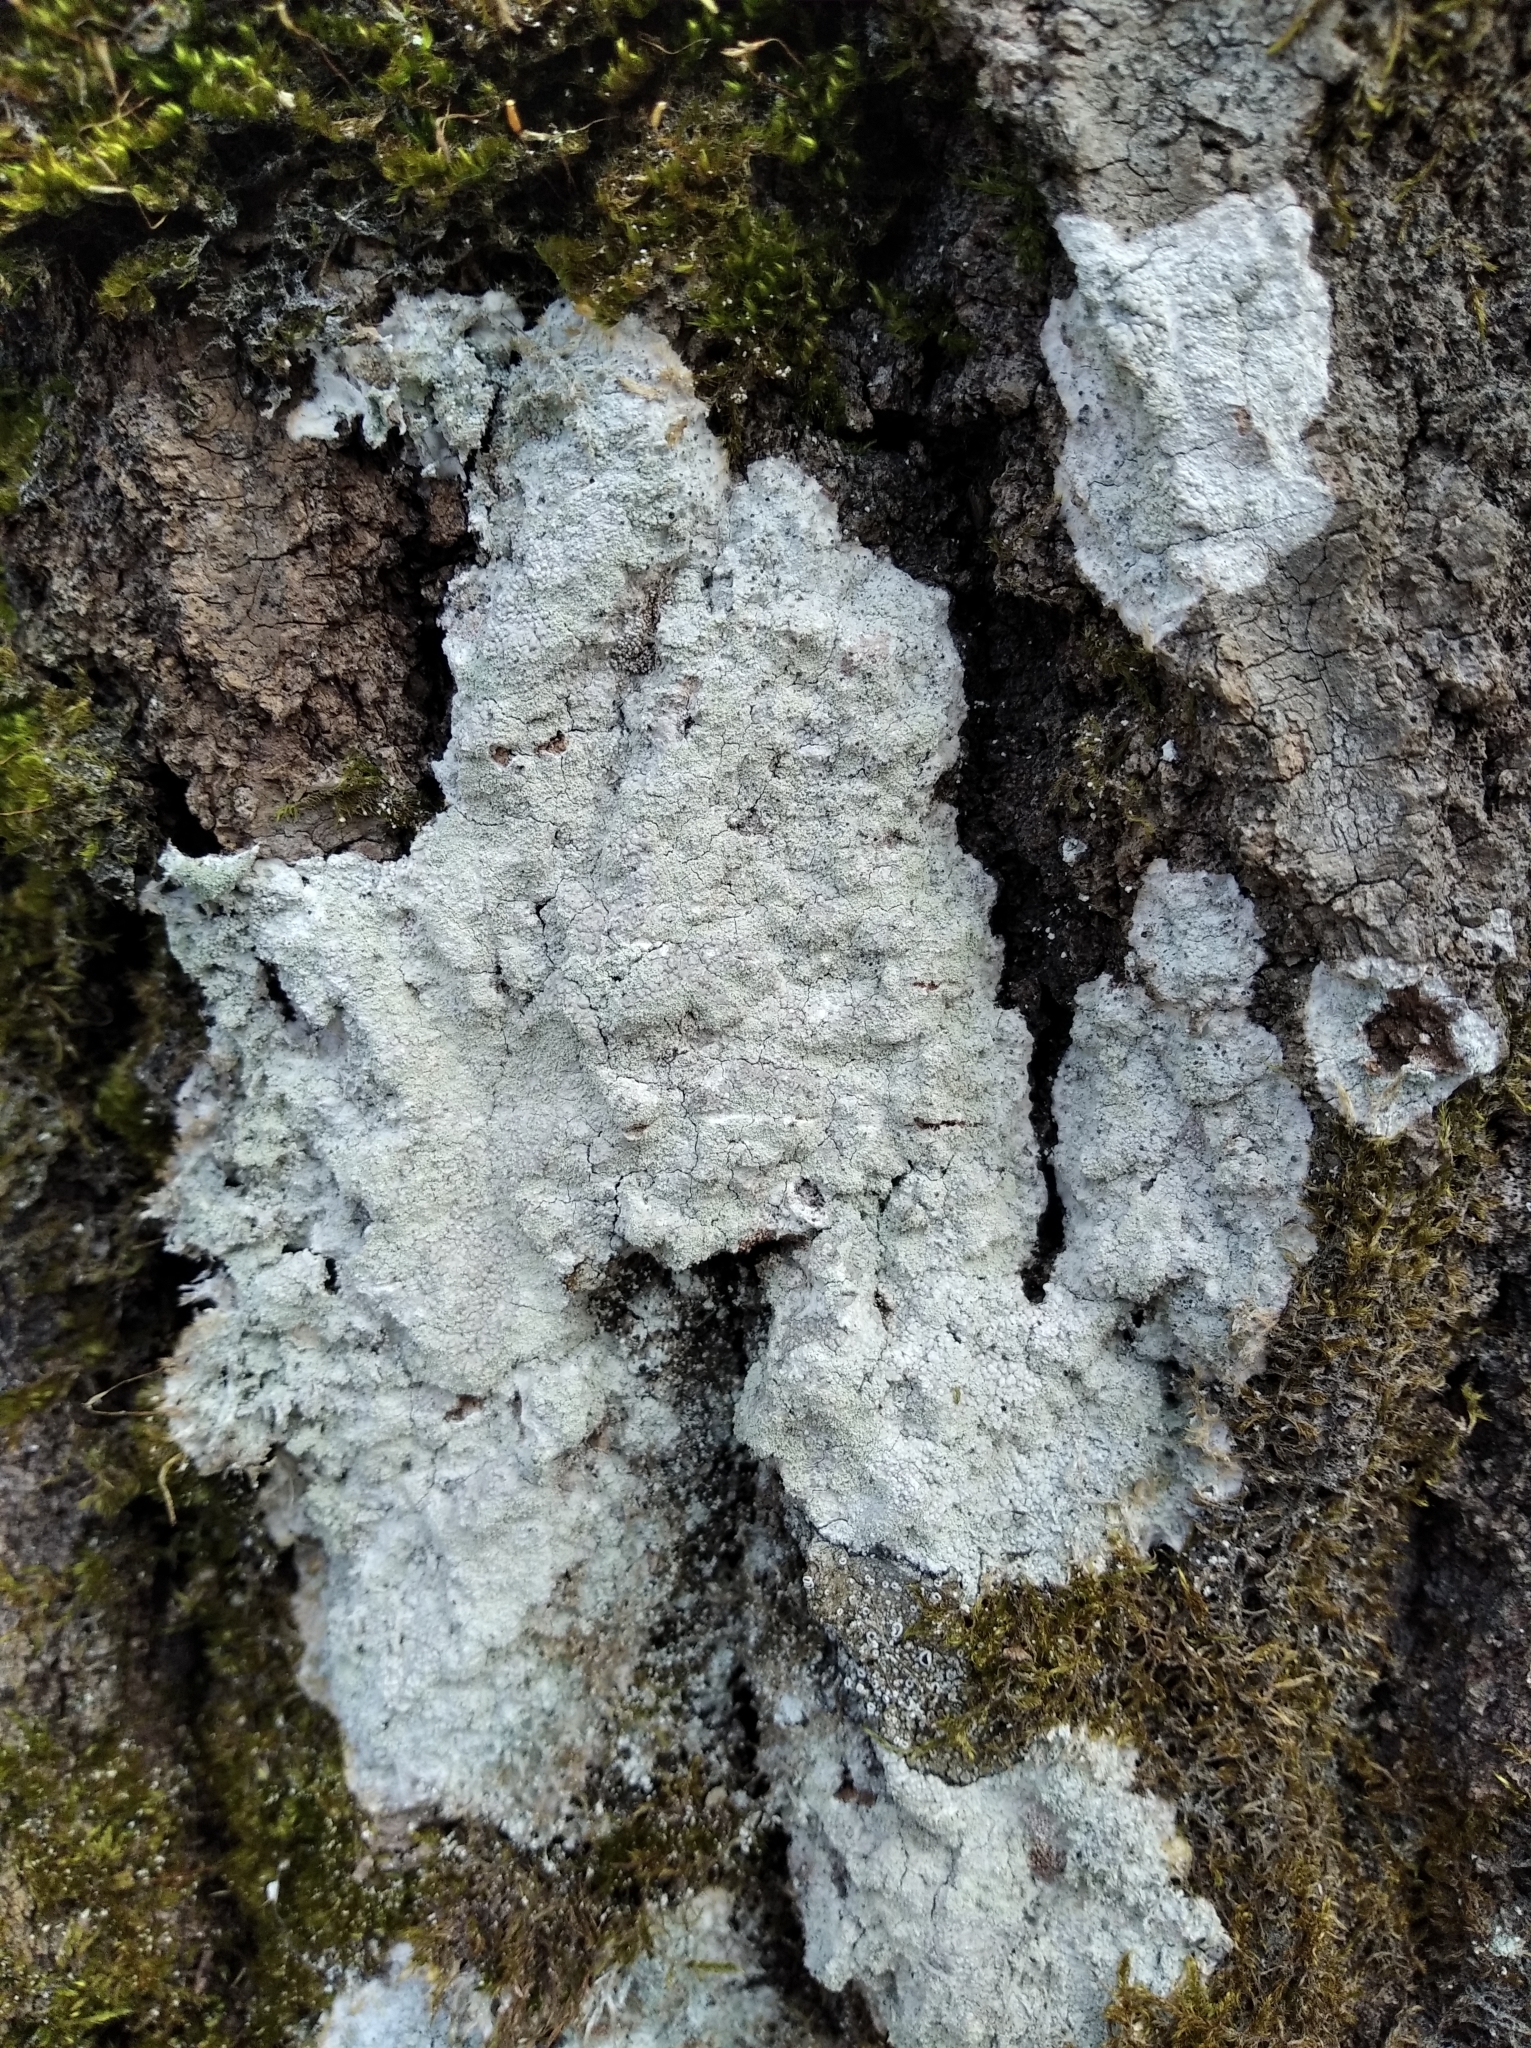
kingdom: Fungi
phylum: Ascomycota
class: Lecanoromycetes
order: Ostropales
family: Phlyctidaceae
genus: Phlyctis
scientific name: Phlyctis argena
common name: Whitewash lichen
